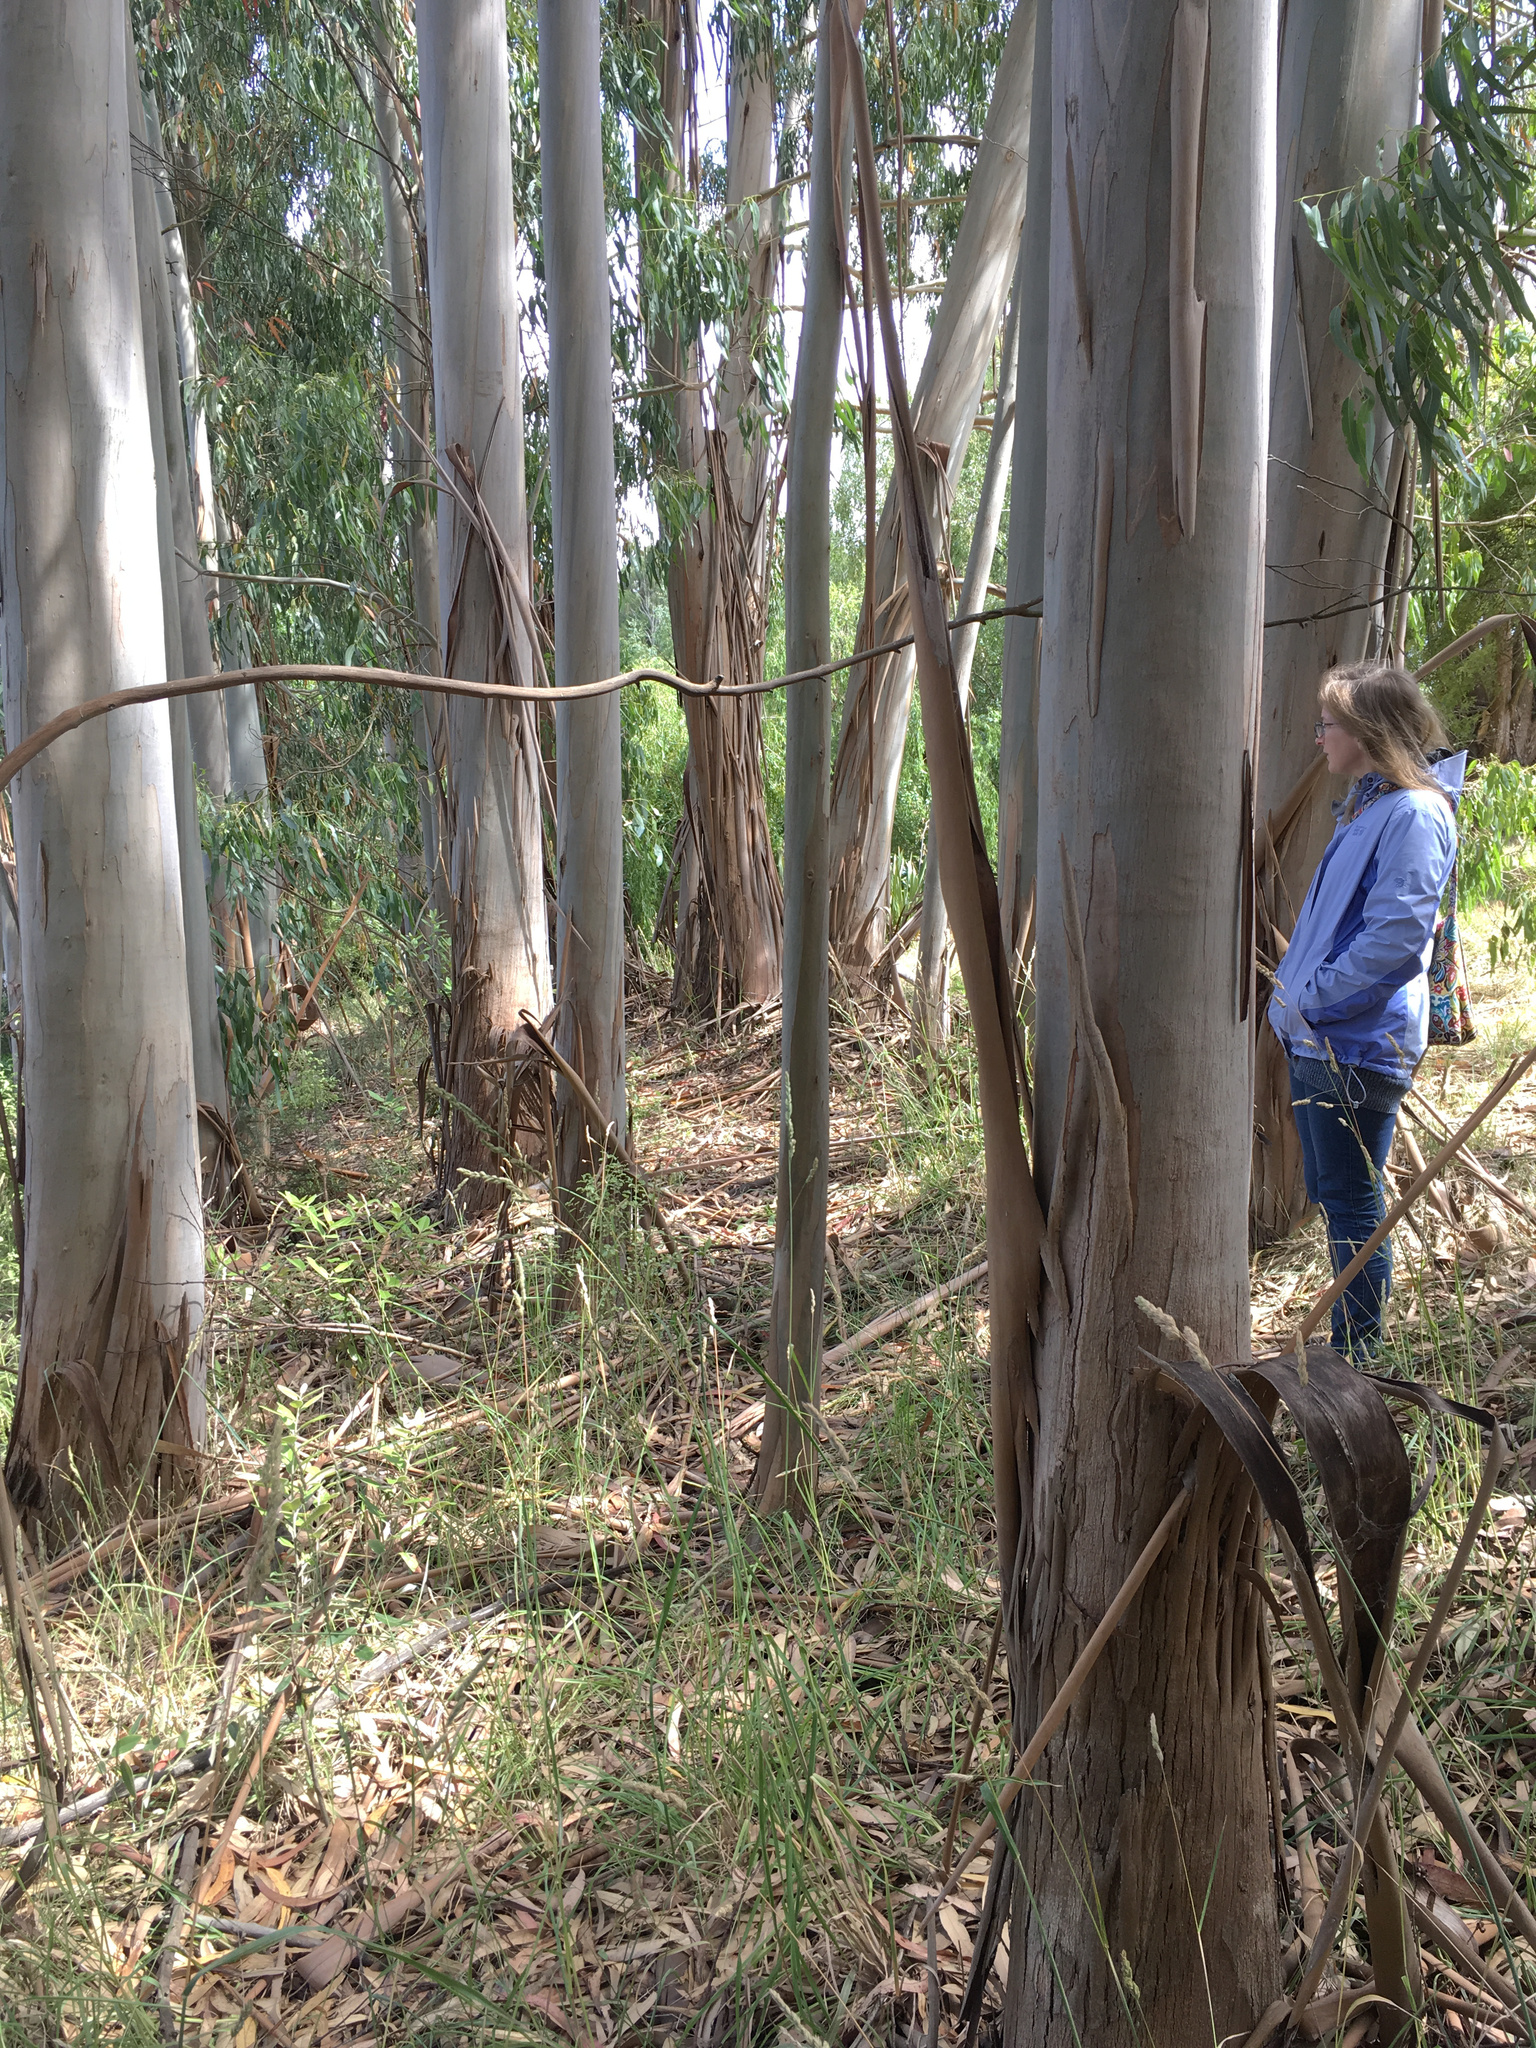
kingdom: Animalia
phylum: Arthropoda
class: Insecta
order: Hymenoptera
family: Pergidae
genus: Phylacteophaga
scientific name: Phylacteophaga froggatti
